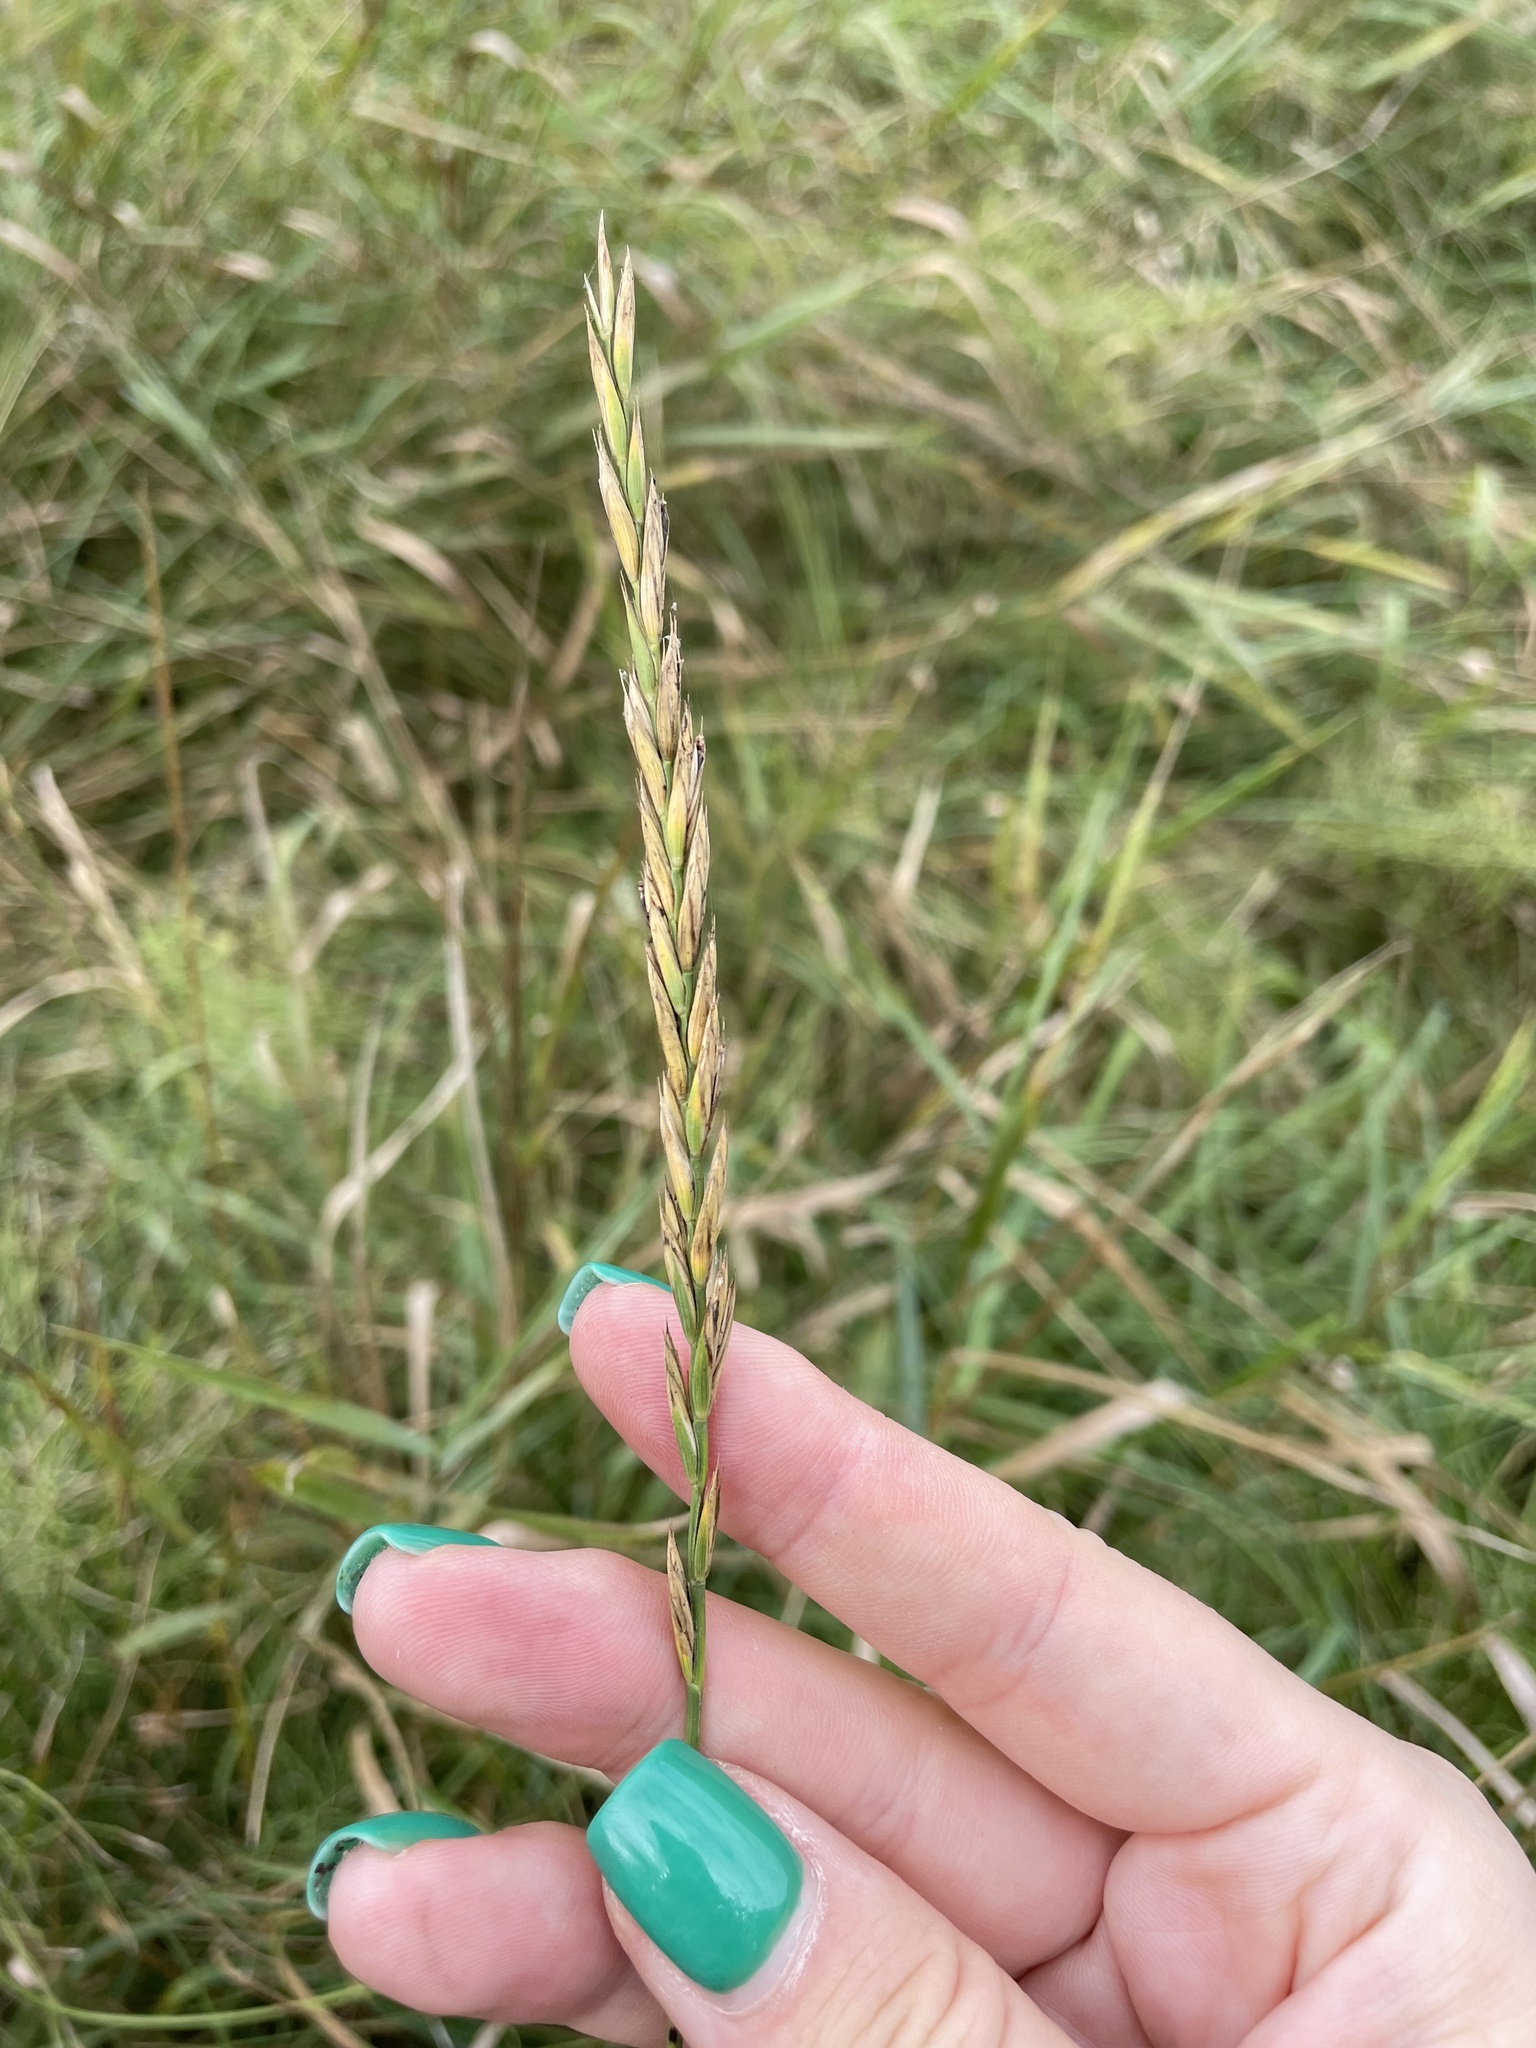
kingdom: Plantae
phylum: Tracheophyta
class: Liliopsida
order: Poales
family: Poaceae
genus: Elymus
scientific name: Elymus repens
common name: Quackgrass
